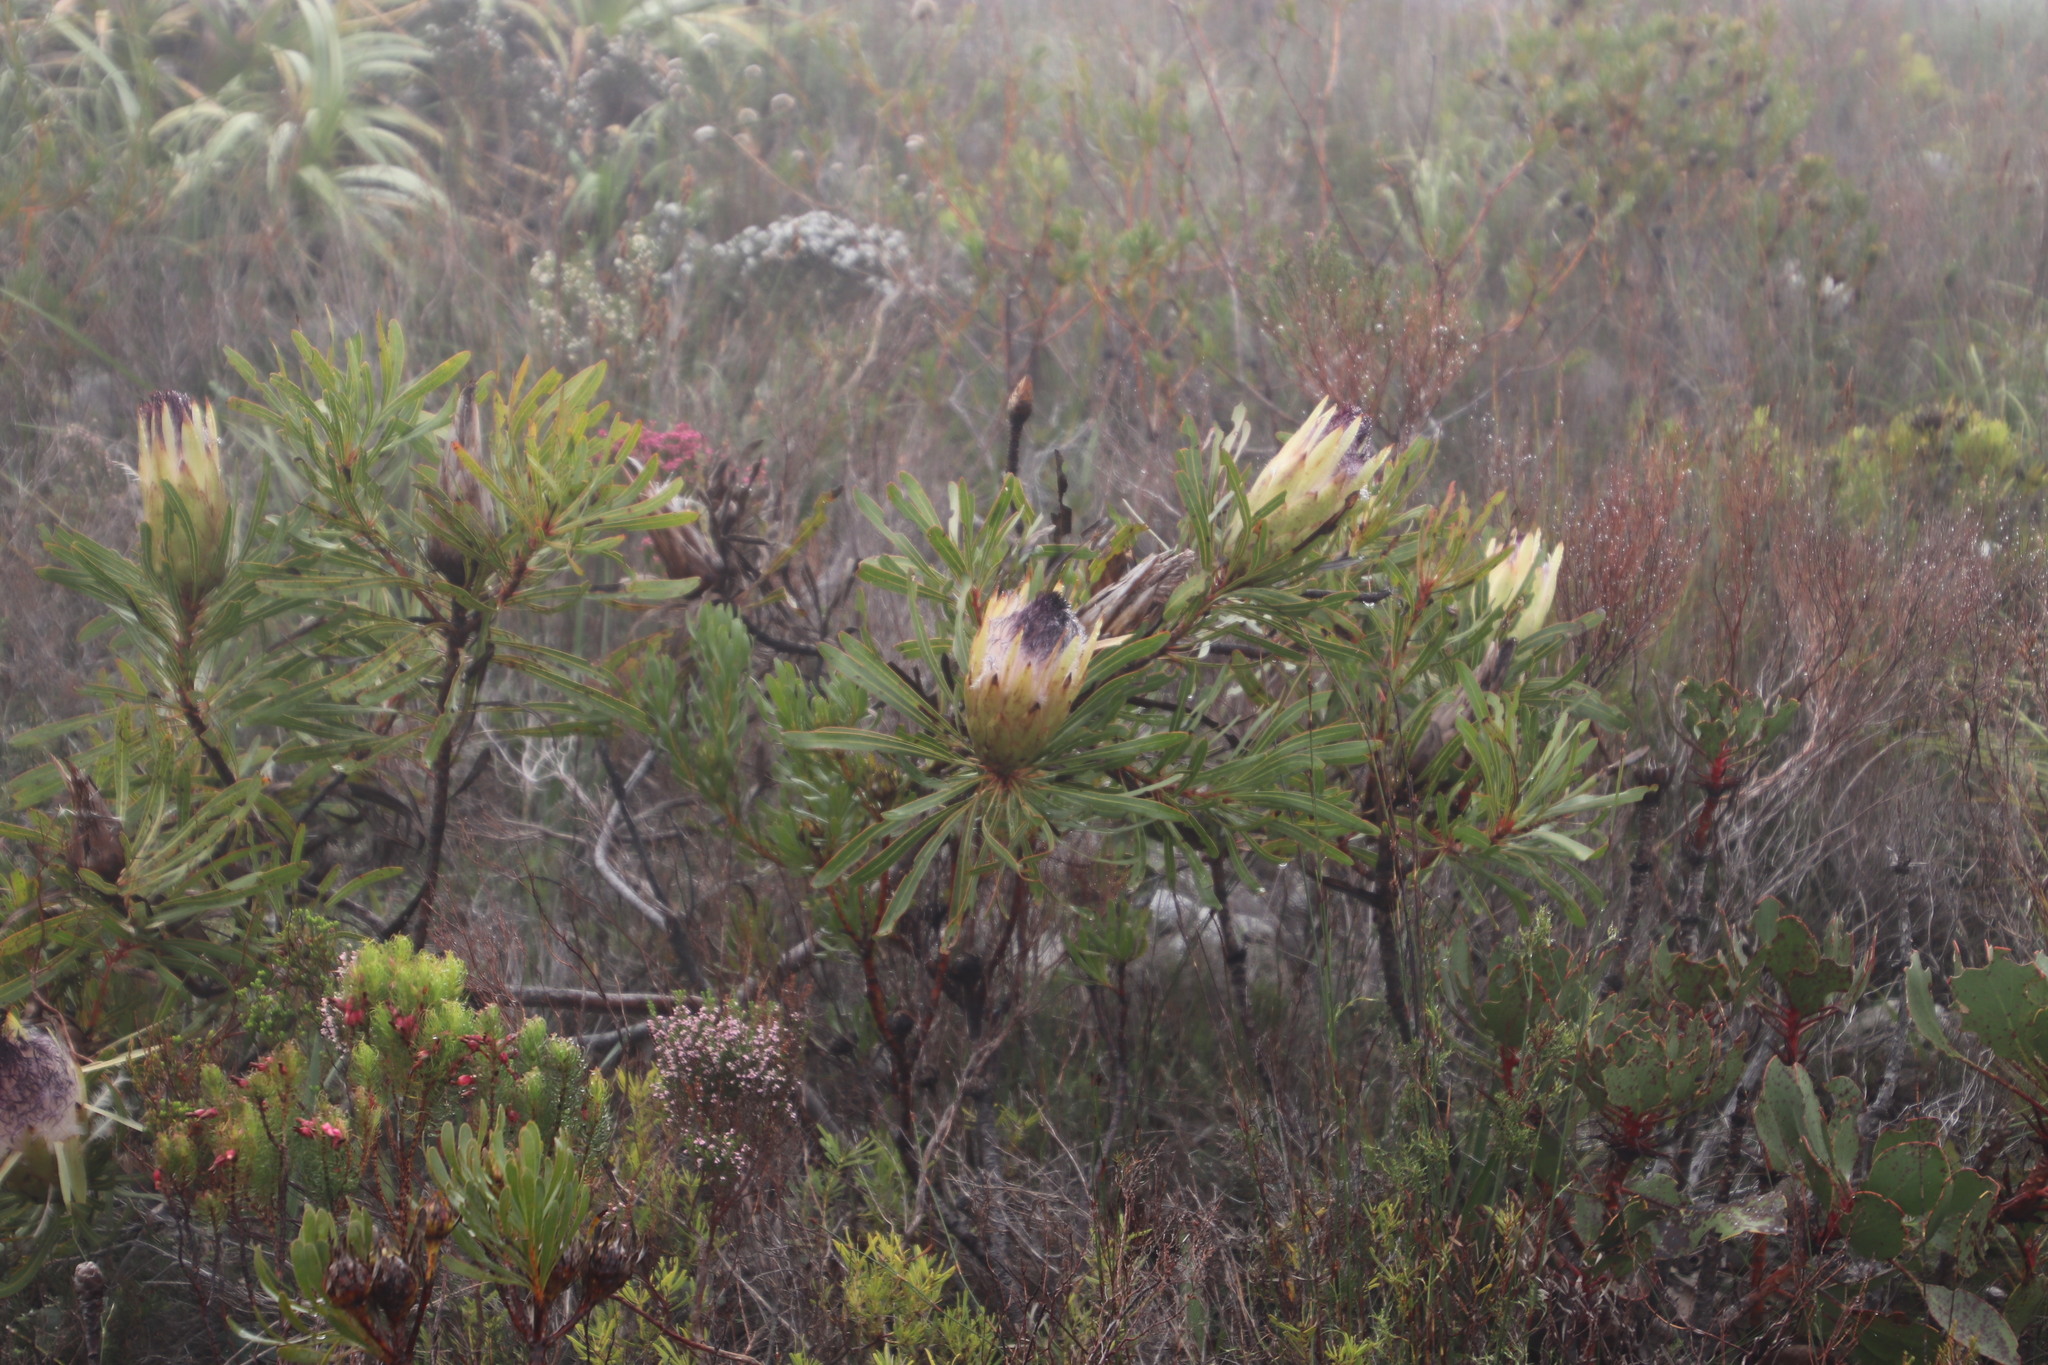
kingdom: Plantae
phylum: Tracheophyta
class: Magnoliopsida
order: Proteales
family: Proteaceae
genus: Protea
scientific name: Protea longifolia
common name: Long-leaf sugarbush
